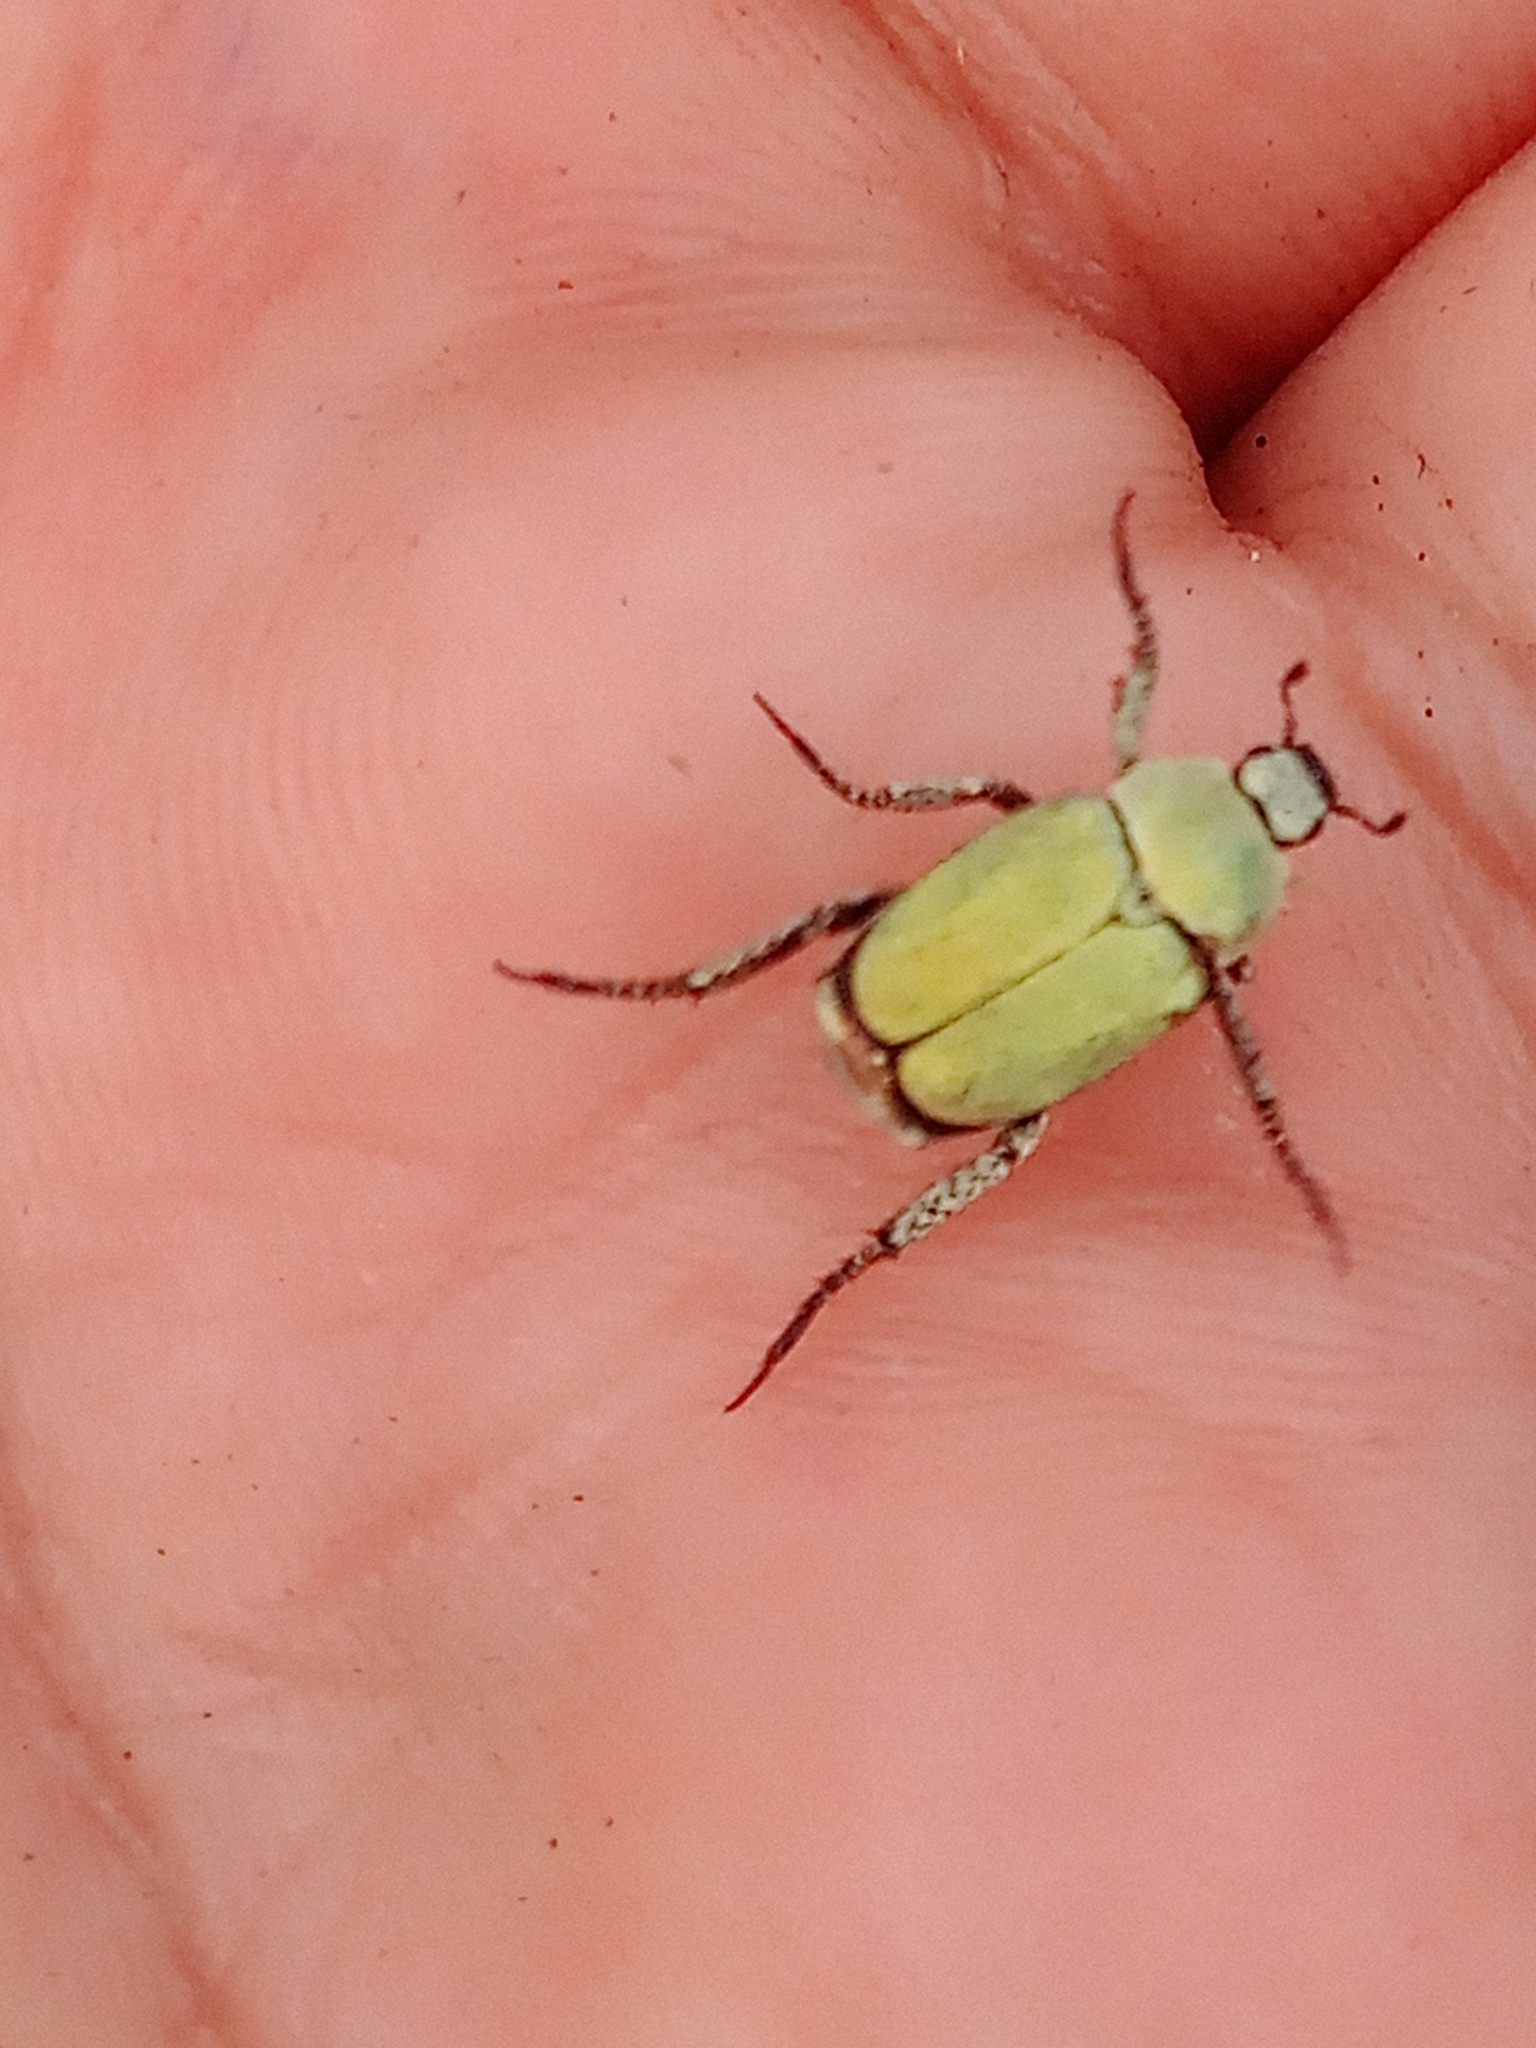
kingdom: Animalia
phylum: Arthropoda
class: Insecta
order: Coleoptera
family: Scarabaeidae
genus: Hoplia
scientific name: Hoplia parvula
